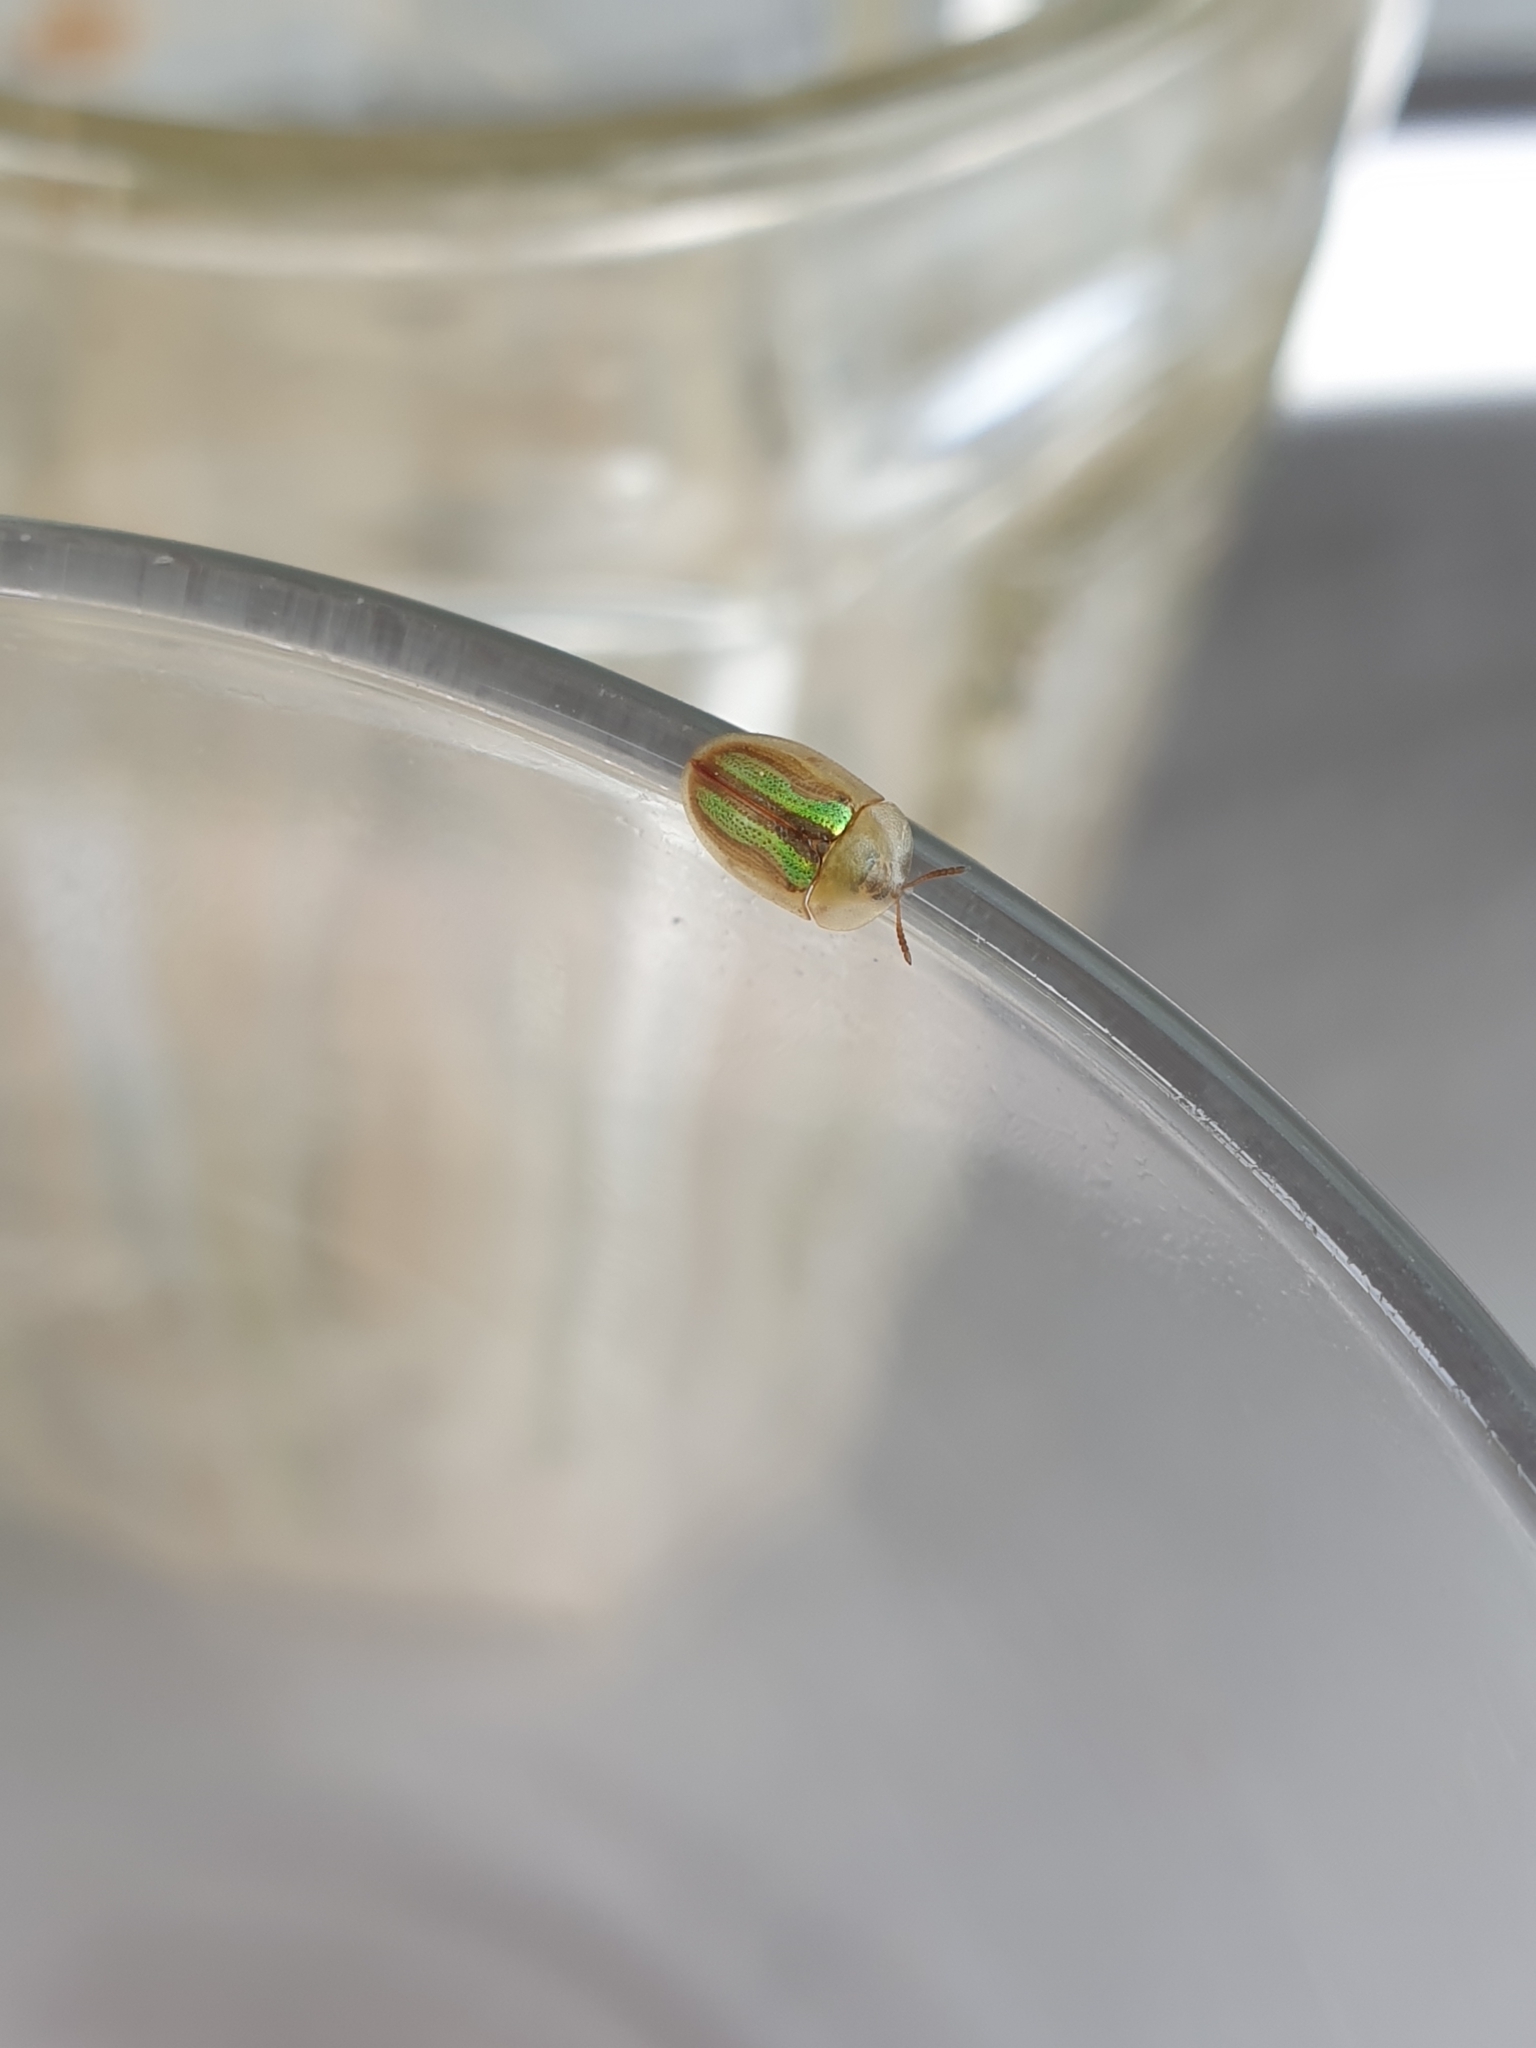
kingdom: Animalia
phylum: Arthropoda
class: Insecta
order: Coleoptera
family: Chrysomelidae
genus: Cassida
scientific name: Cassida vittata
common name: Bordered tortoise beetle
